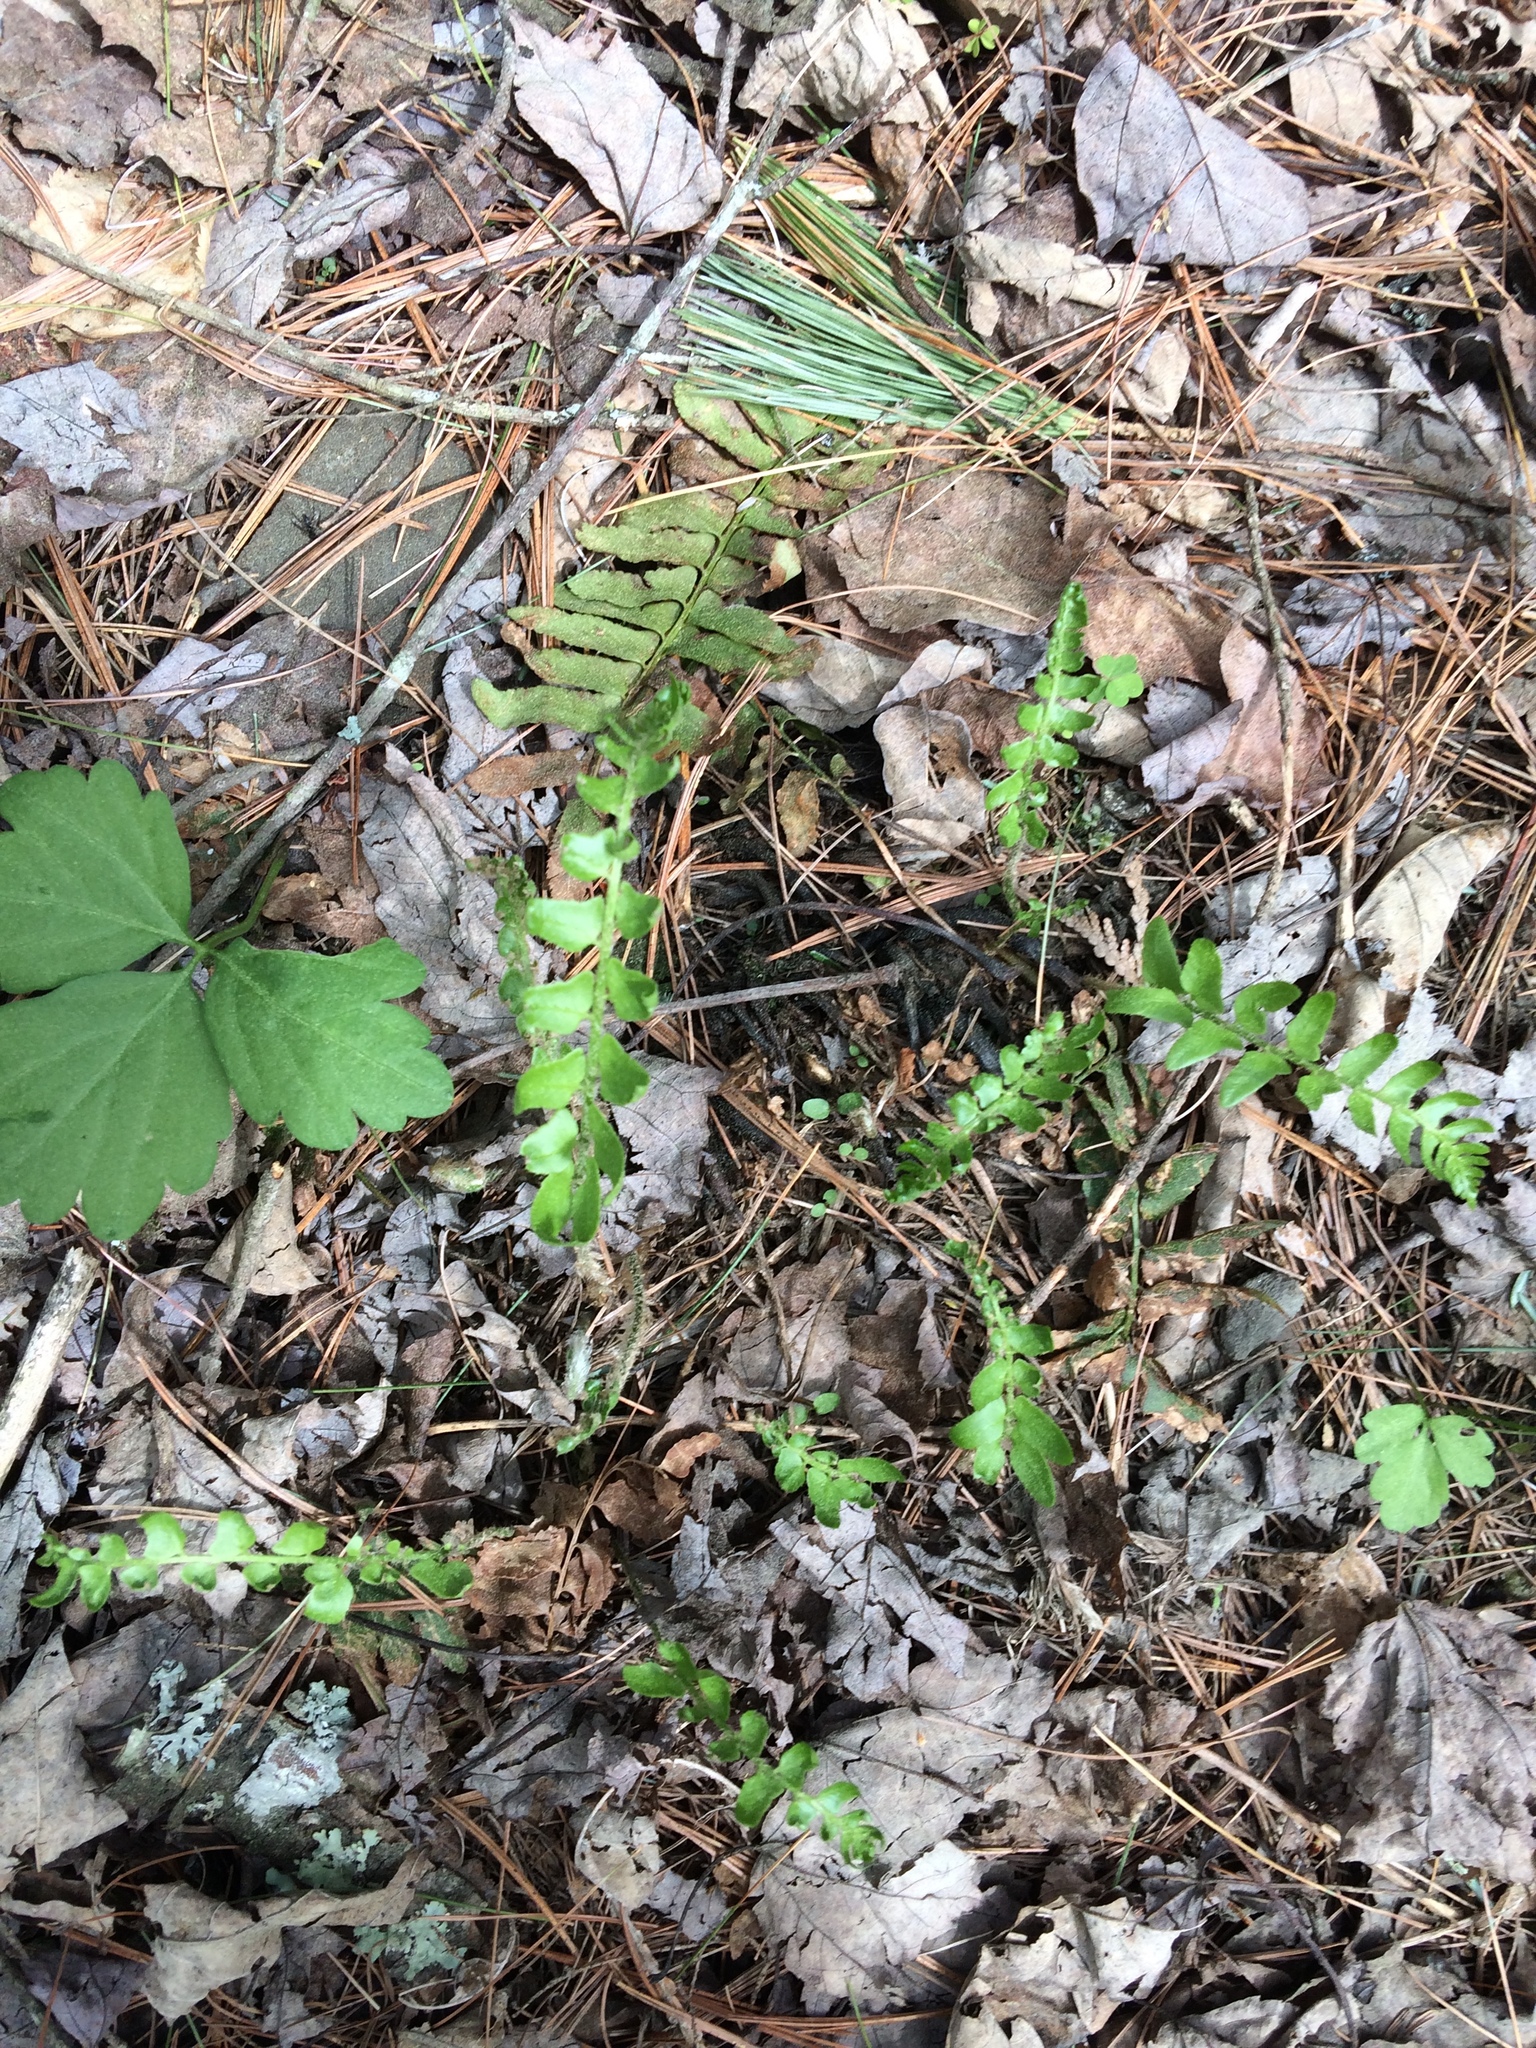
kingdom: Plantae
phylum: Tracheophyta
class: Polypodiopsida
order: Polypodiales
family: Dryopteridaceae
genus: Polystichum
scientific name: Polystichum acrostichoides
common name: Christmas fern
